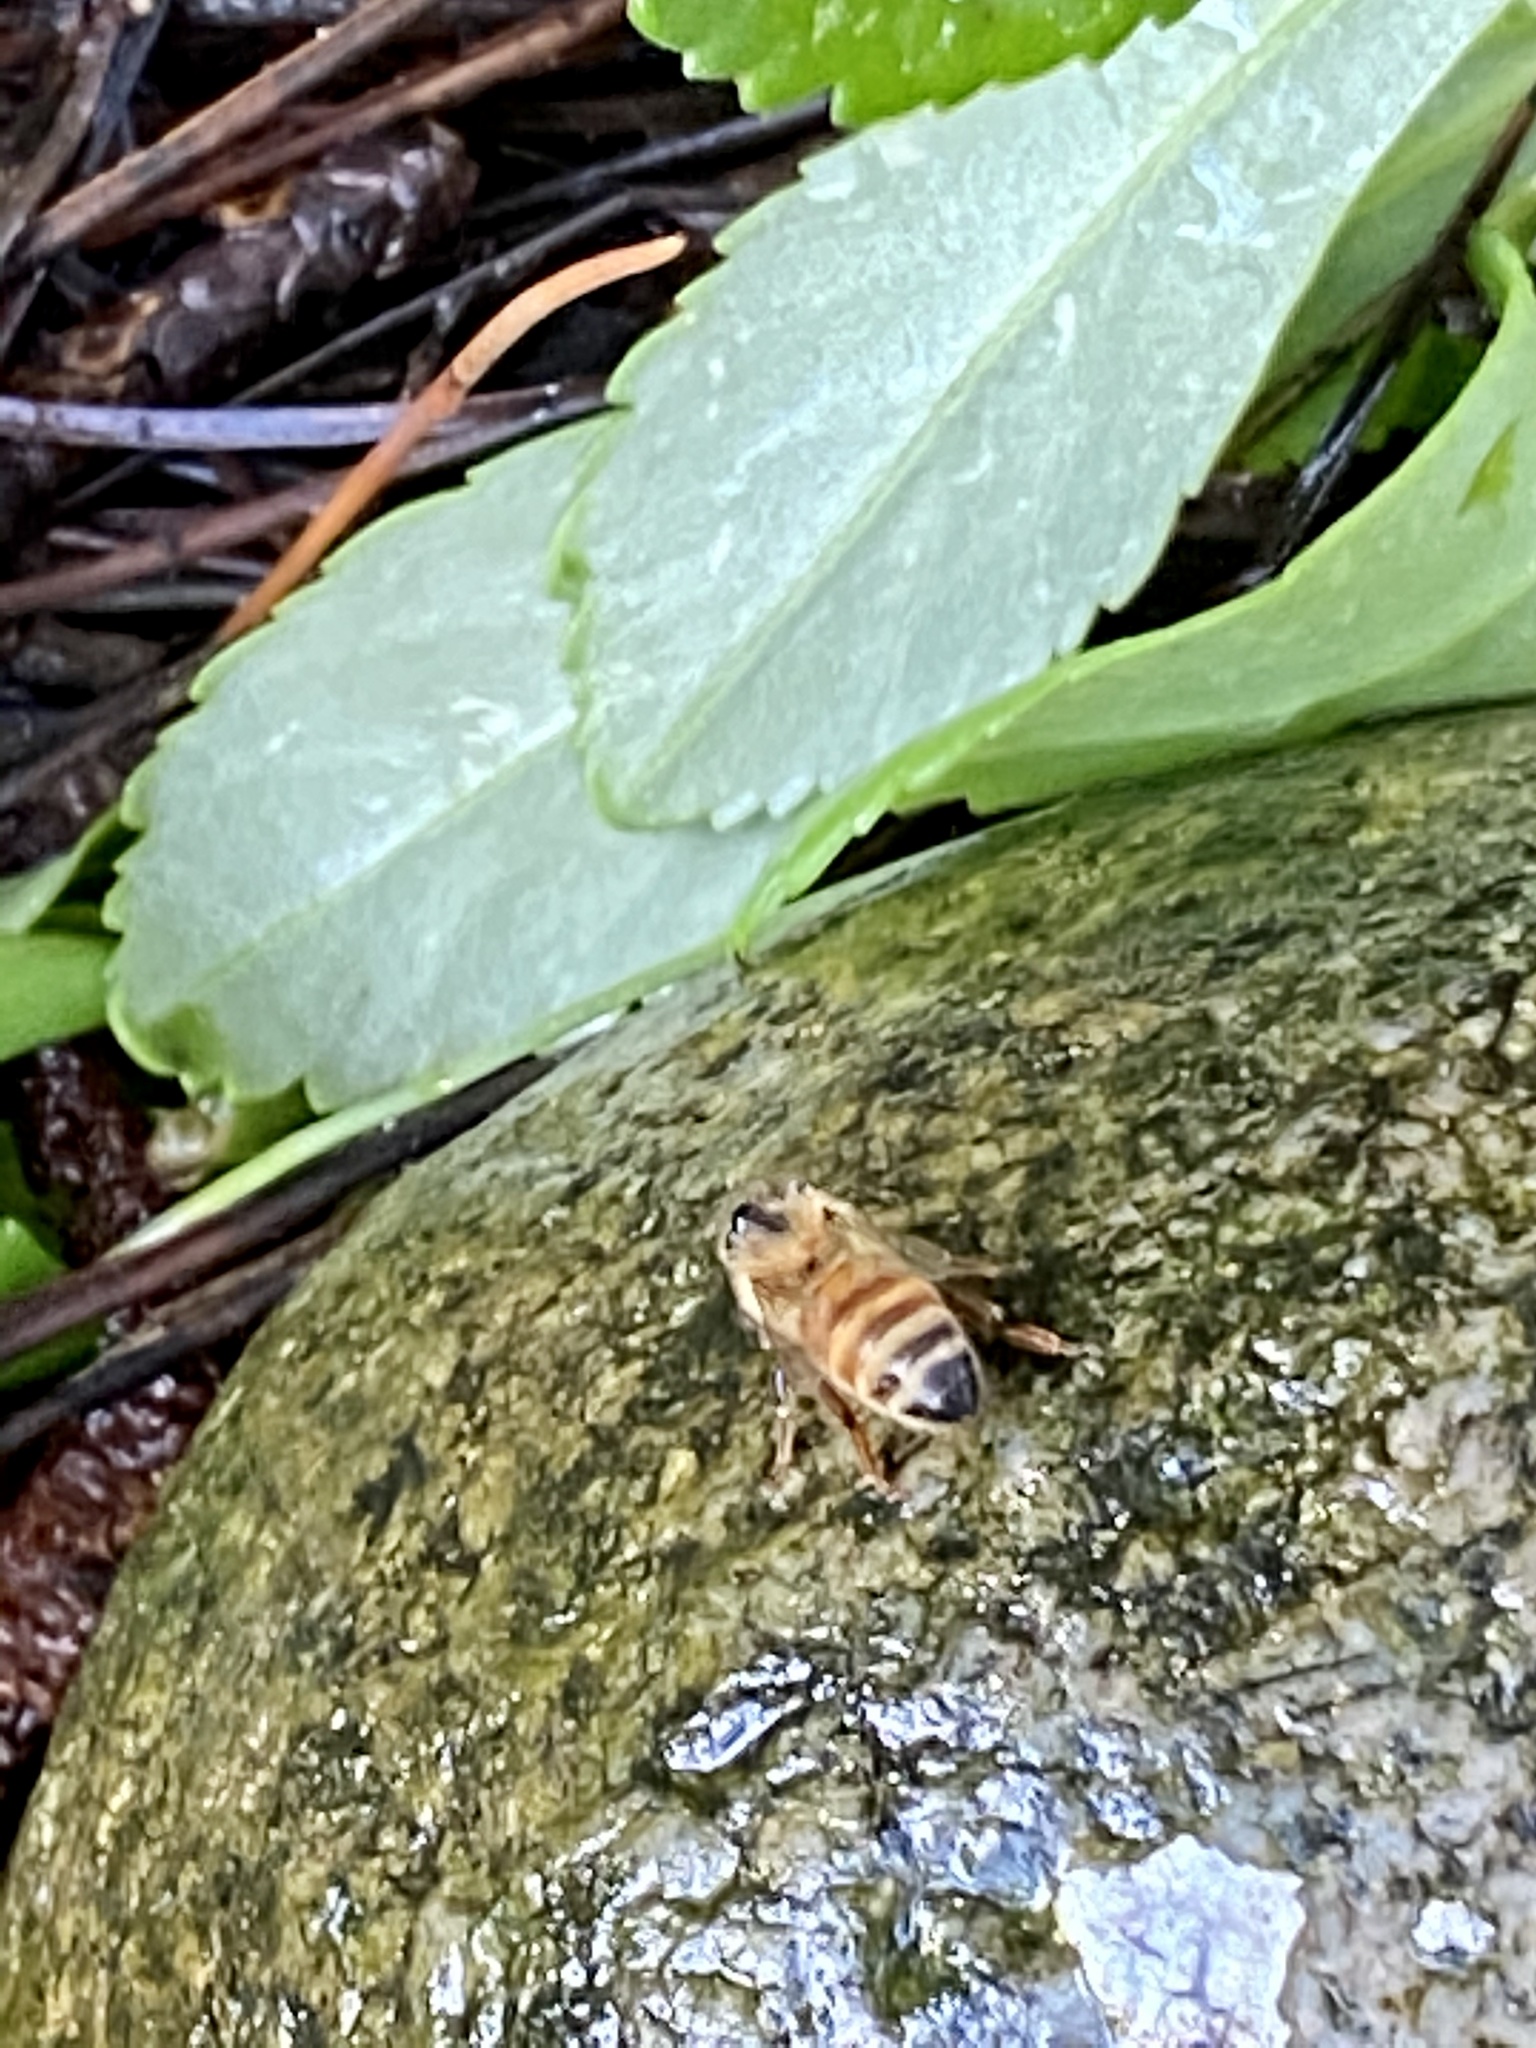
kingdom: Animalia
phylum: Arthropoda
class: Insecta
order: Hymenoptera
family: Apidae
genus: Apis
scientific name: Apis mellifera
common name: Honey bee
